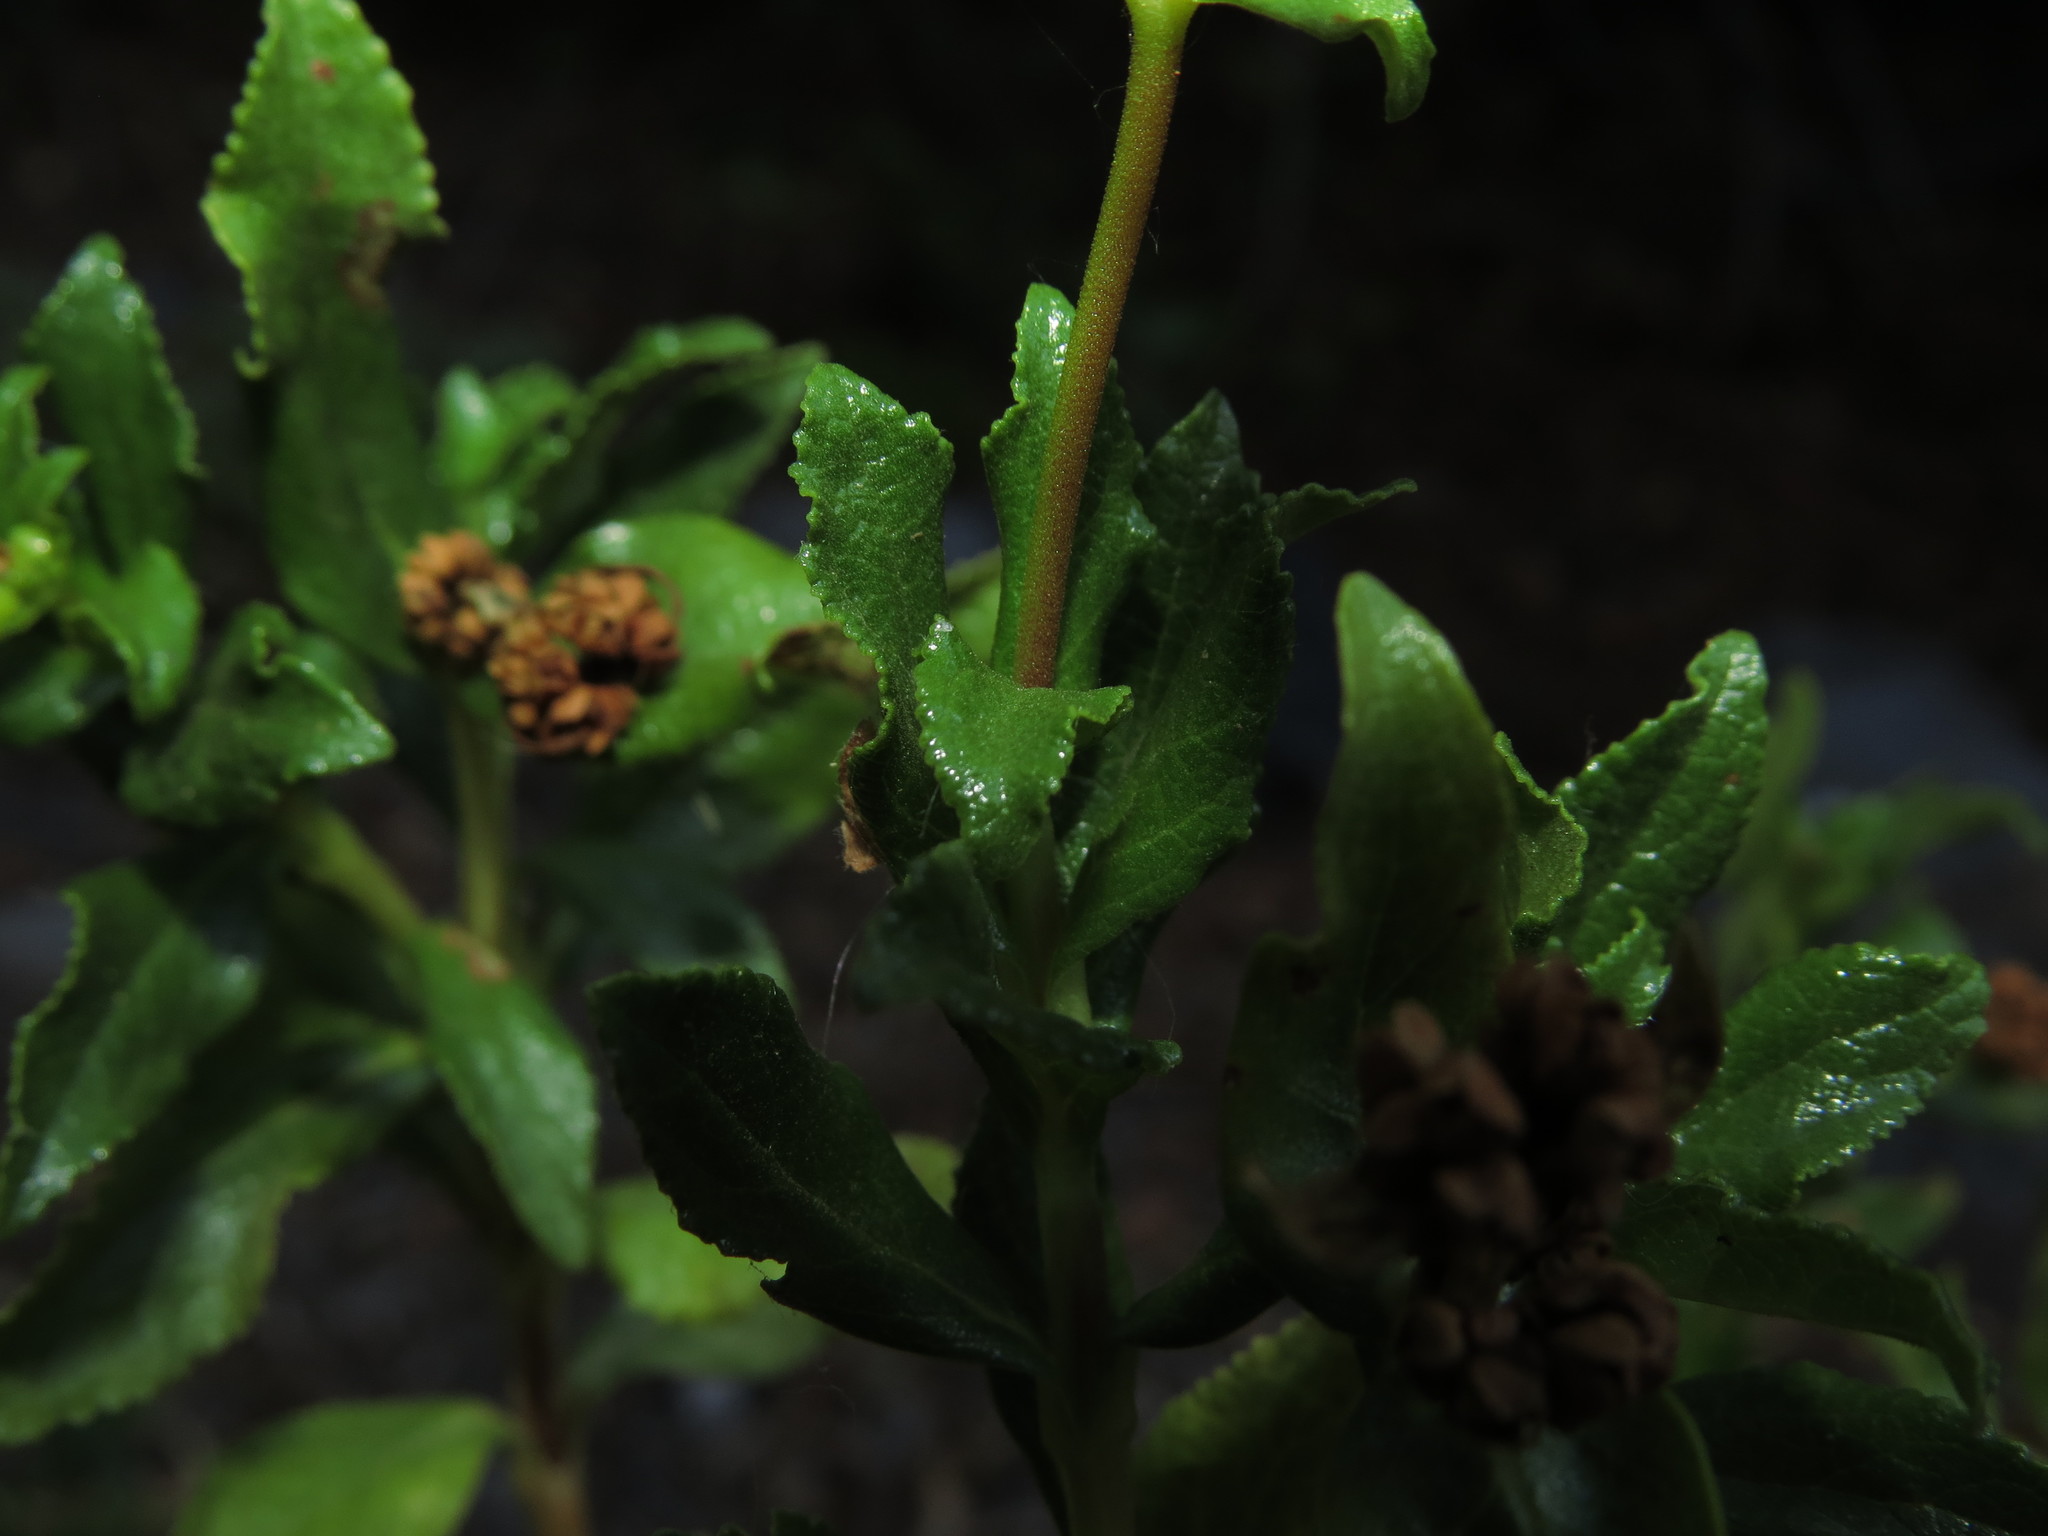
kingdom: Plantae
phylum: Tracheophyta
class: Magnoliopsida
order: Lamiales
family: Calceolariaceae
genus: Calceolaria
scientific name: Calceolaria meyeniana
